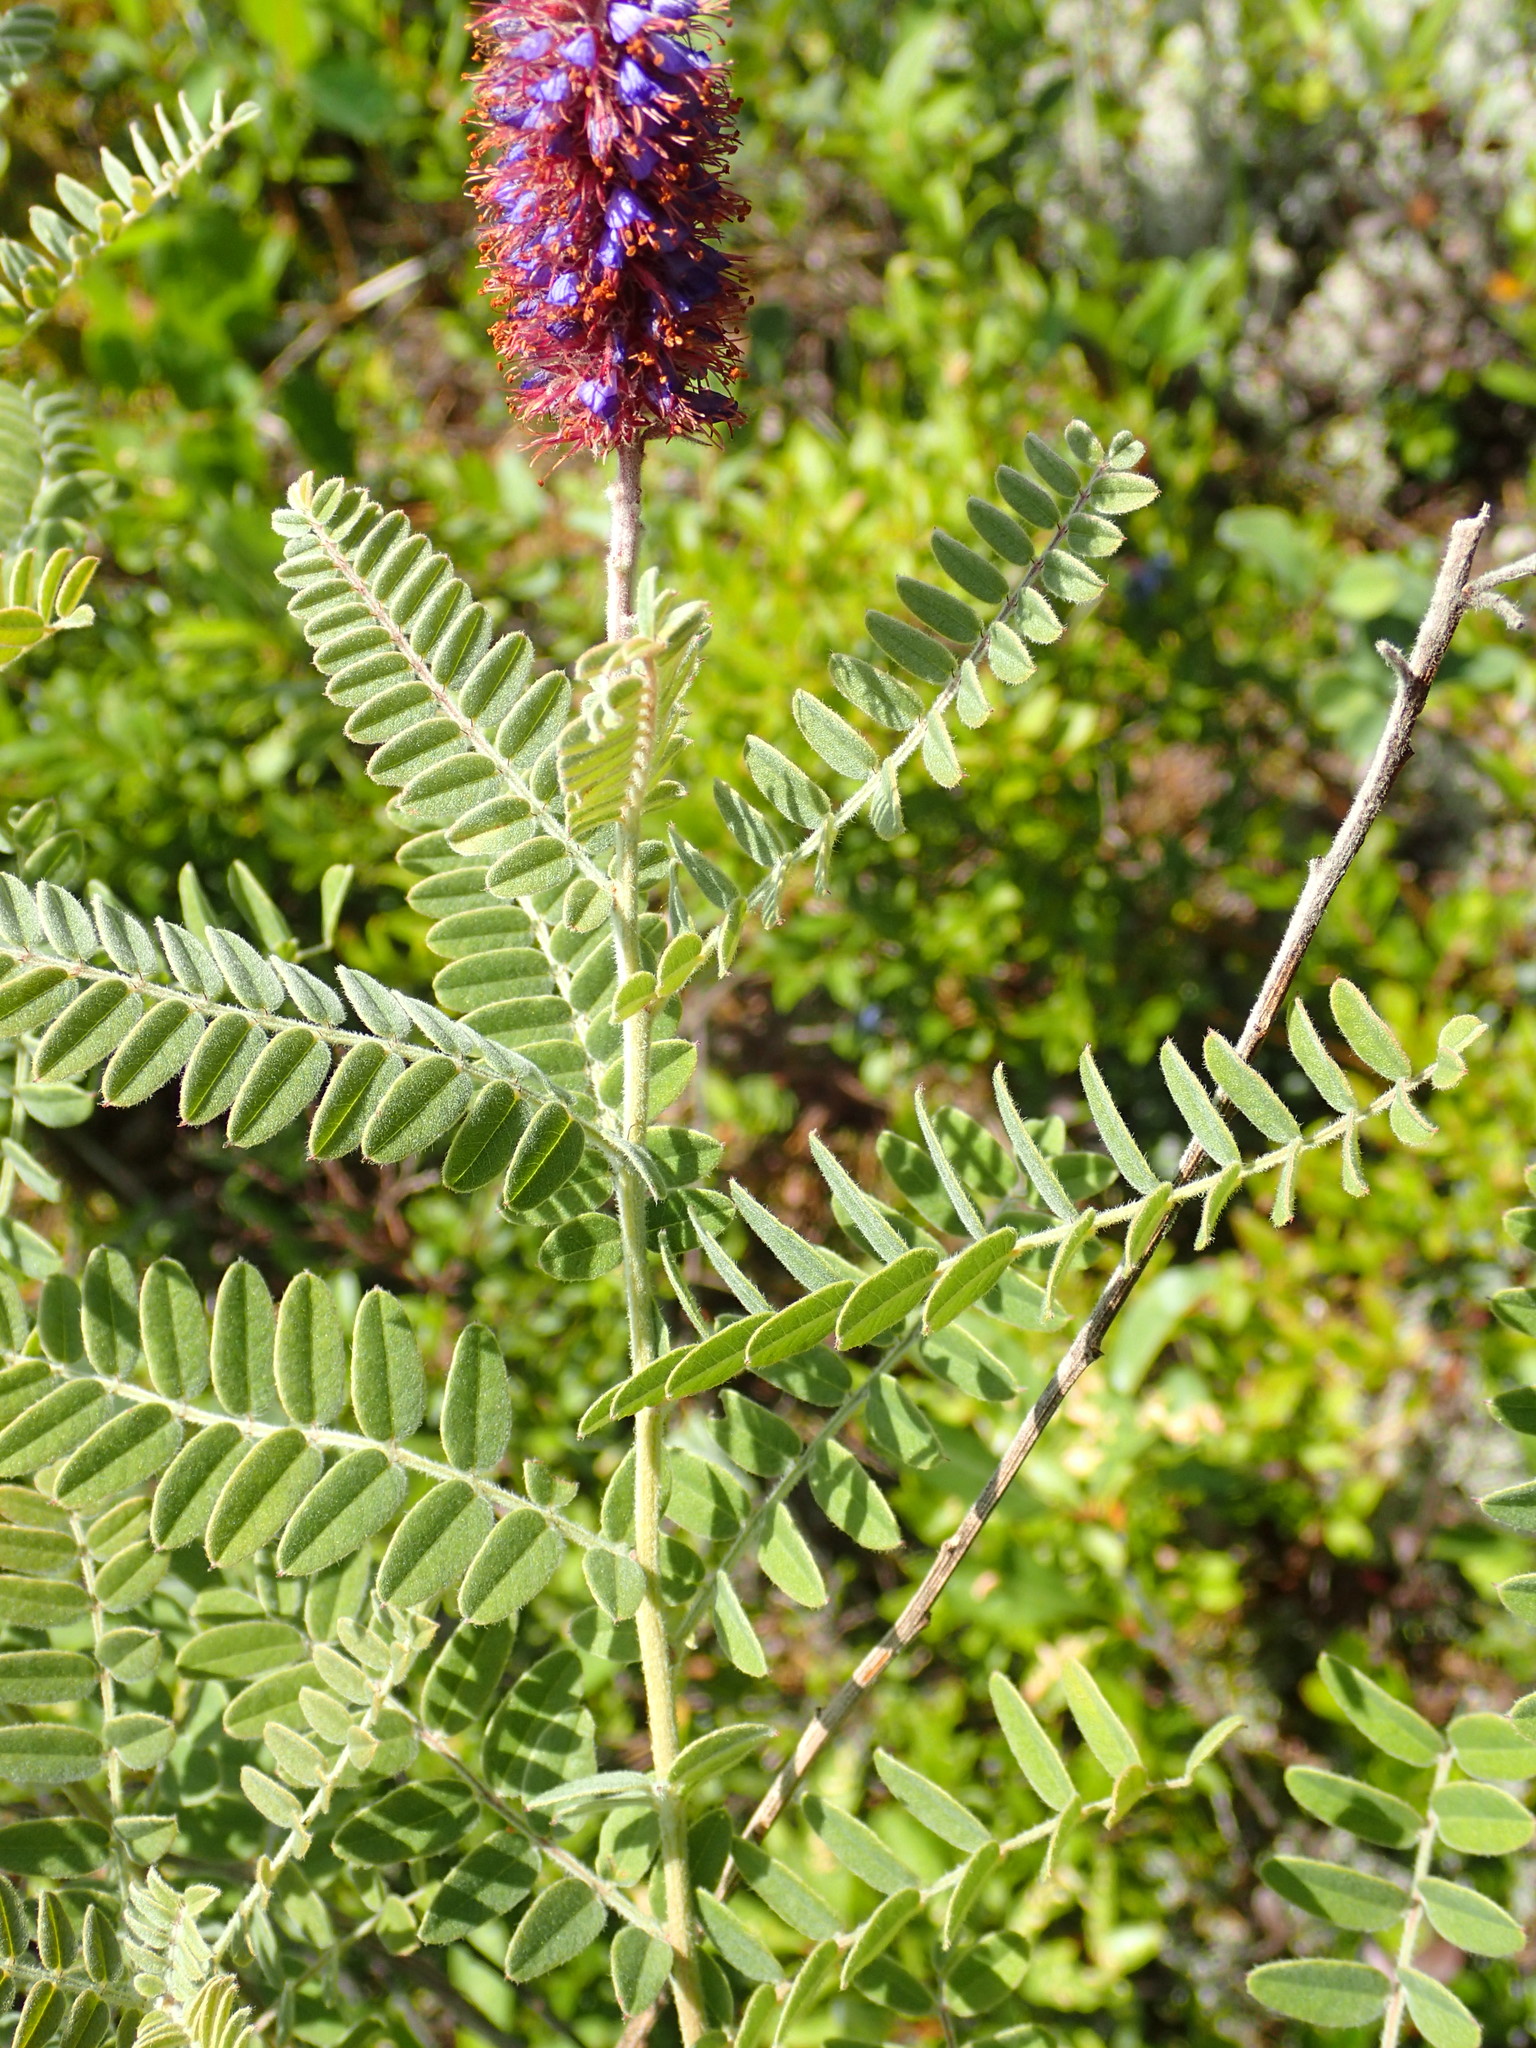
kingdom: Plantae
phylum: Tracheophyta
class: Magnoliopsida
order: Fabales
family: Fabaceae
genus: Amorpha
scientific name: Amorpha canescens
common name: Leadplant
